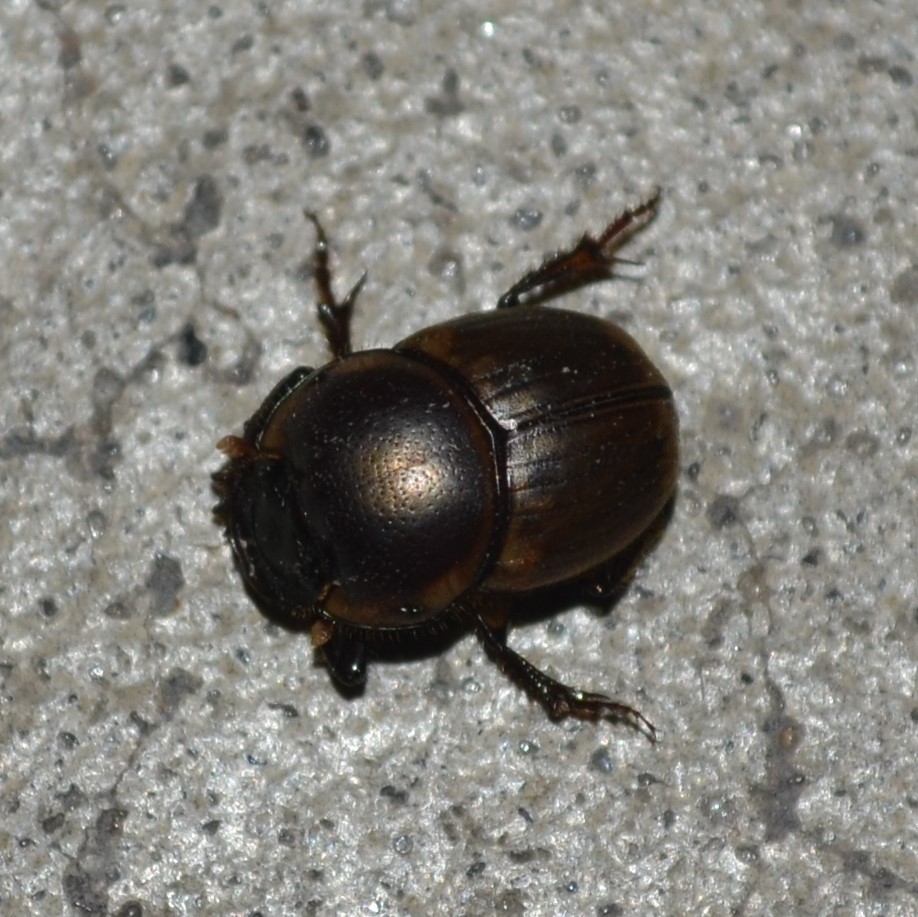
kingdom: Animalia
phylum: Arthropoda
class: Insecta
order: Coleoptera
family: Scarabaeidae
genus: Digitonthophagus
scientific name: Digitonthophagus gazella
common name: Brown dung beetle
